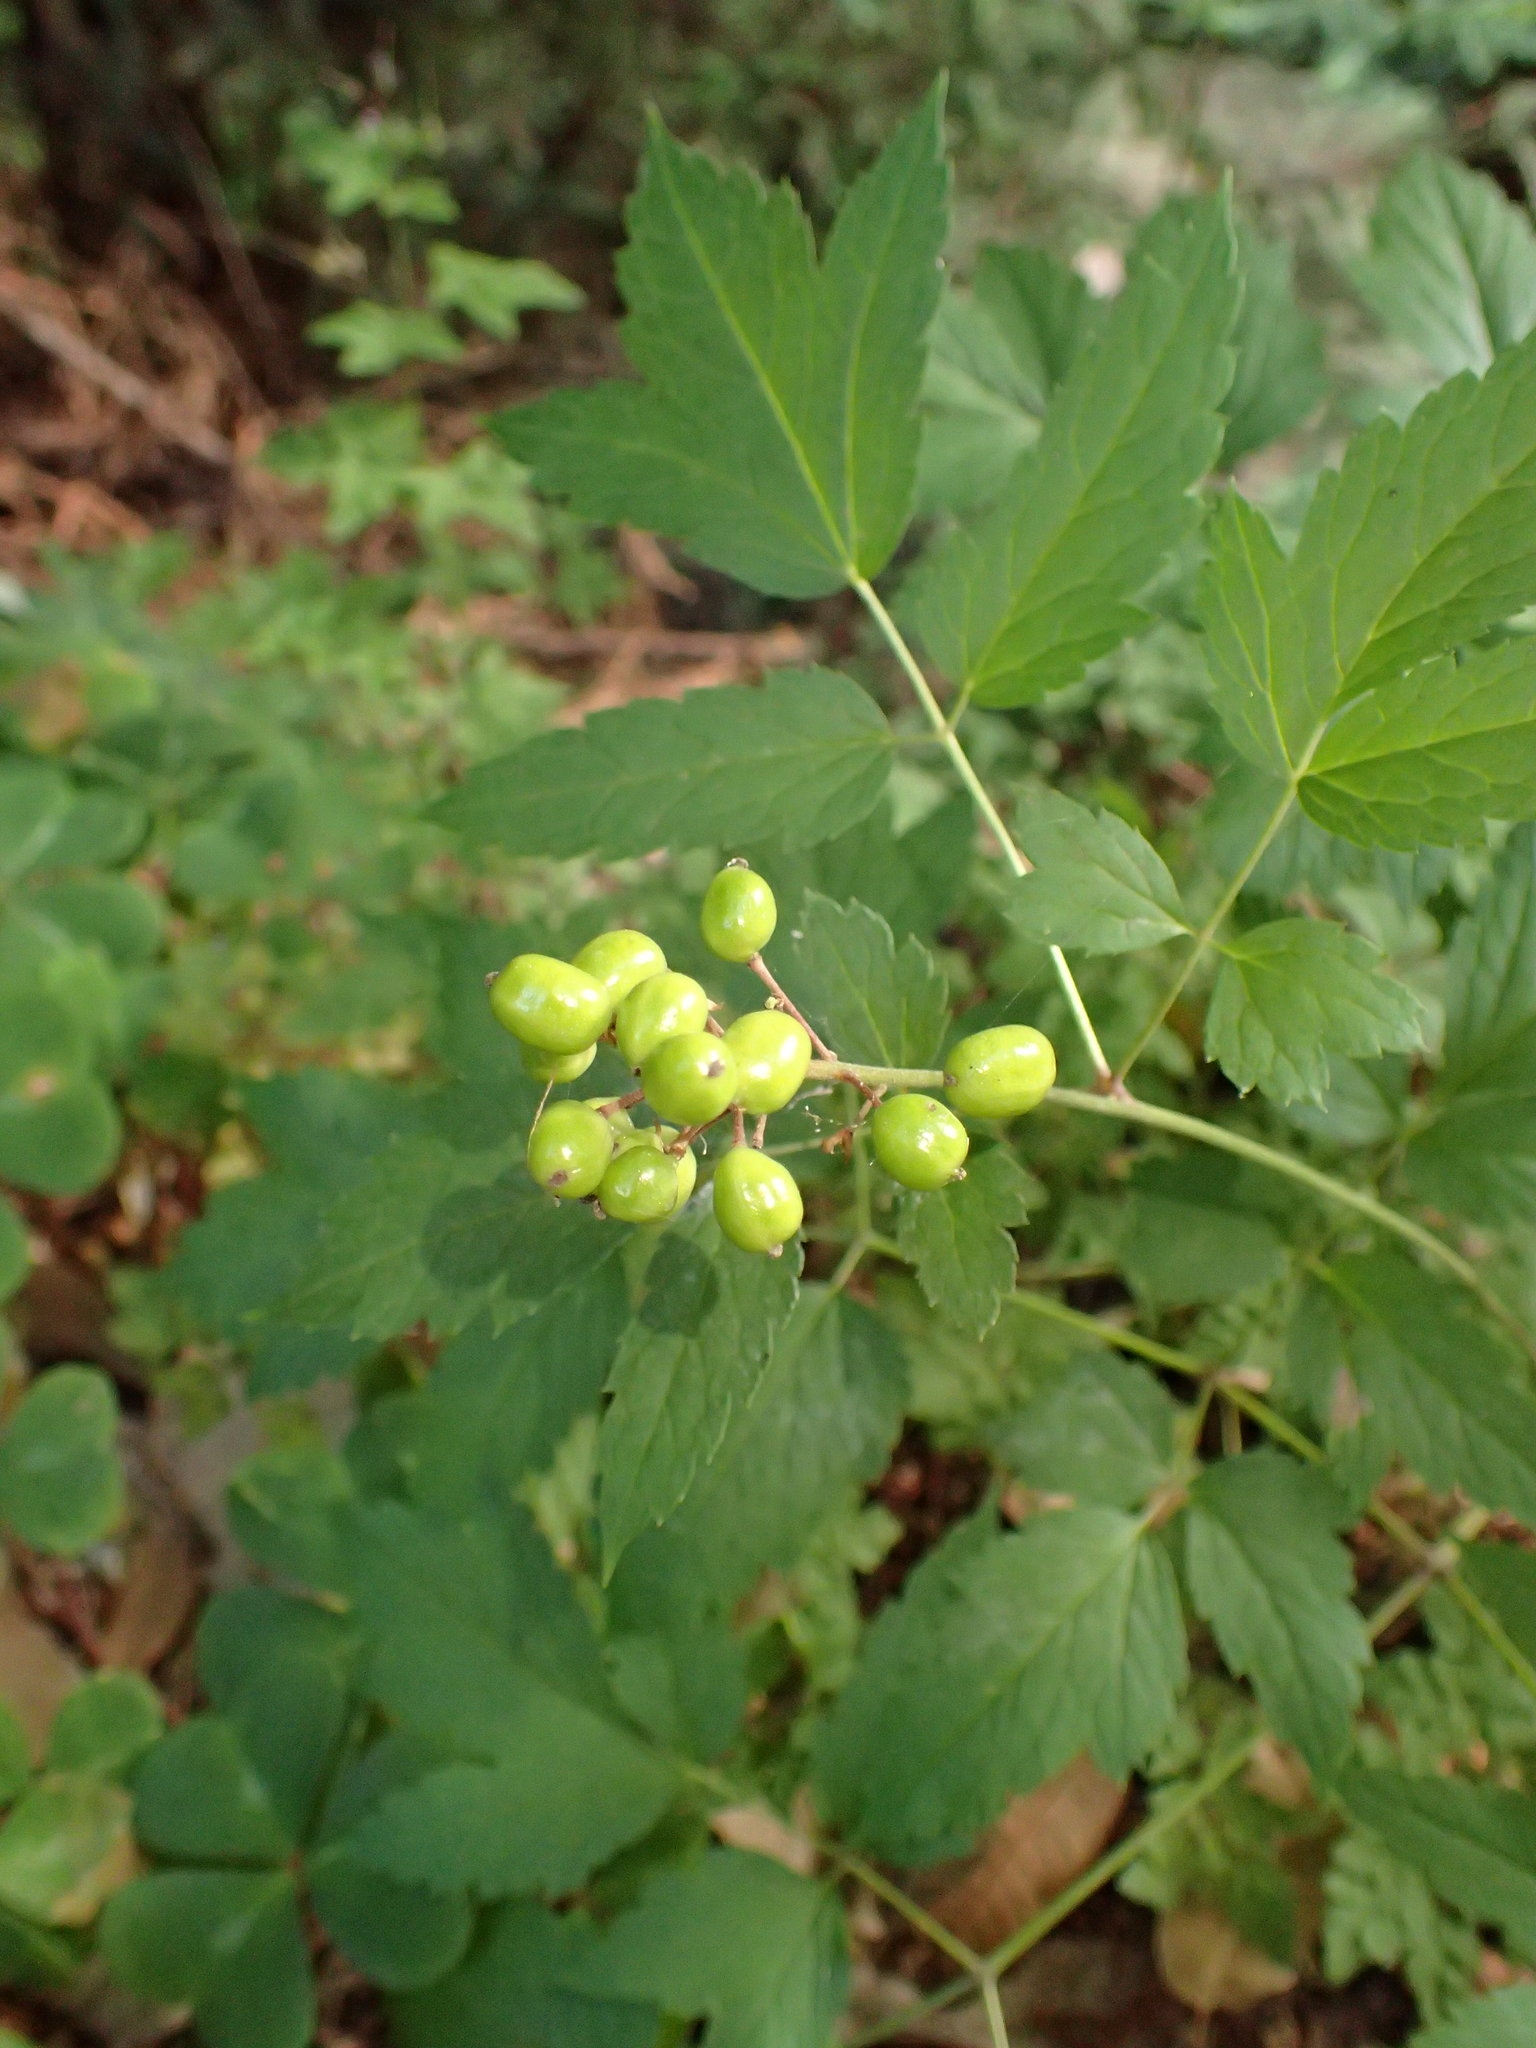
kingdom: Plantae
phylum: Tracheophyta
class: Magnoliopsida
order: Ranunculales
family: Ranunculaceae
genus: Actaea
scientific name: Actaea rubra
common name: Red baneberry
